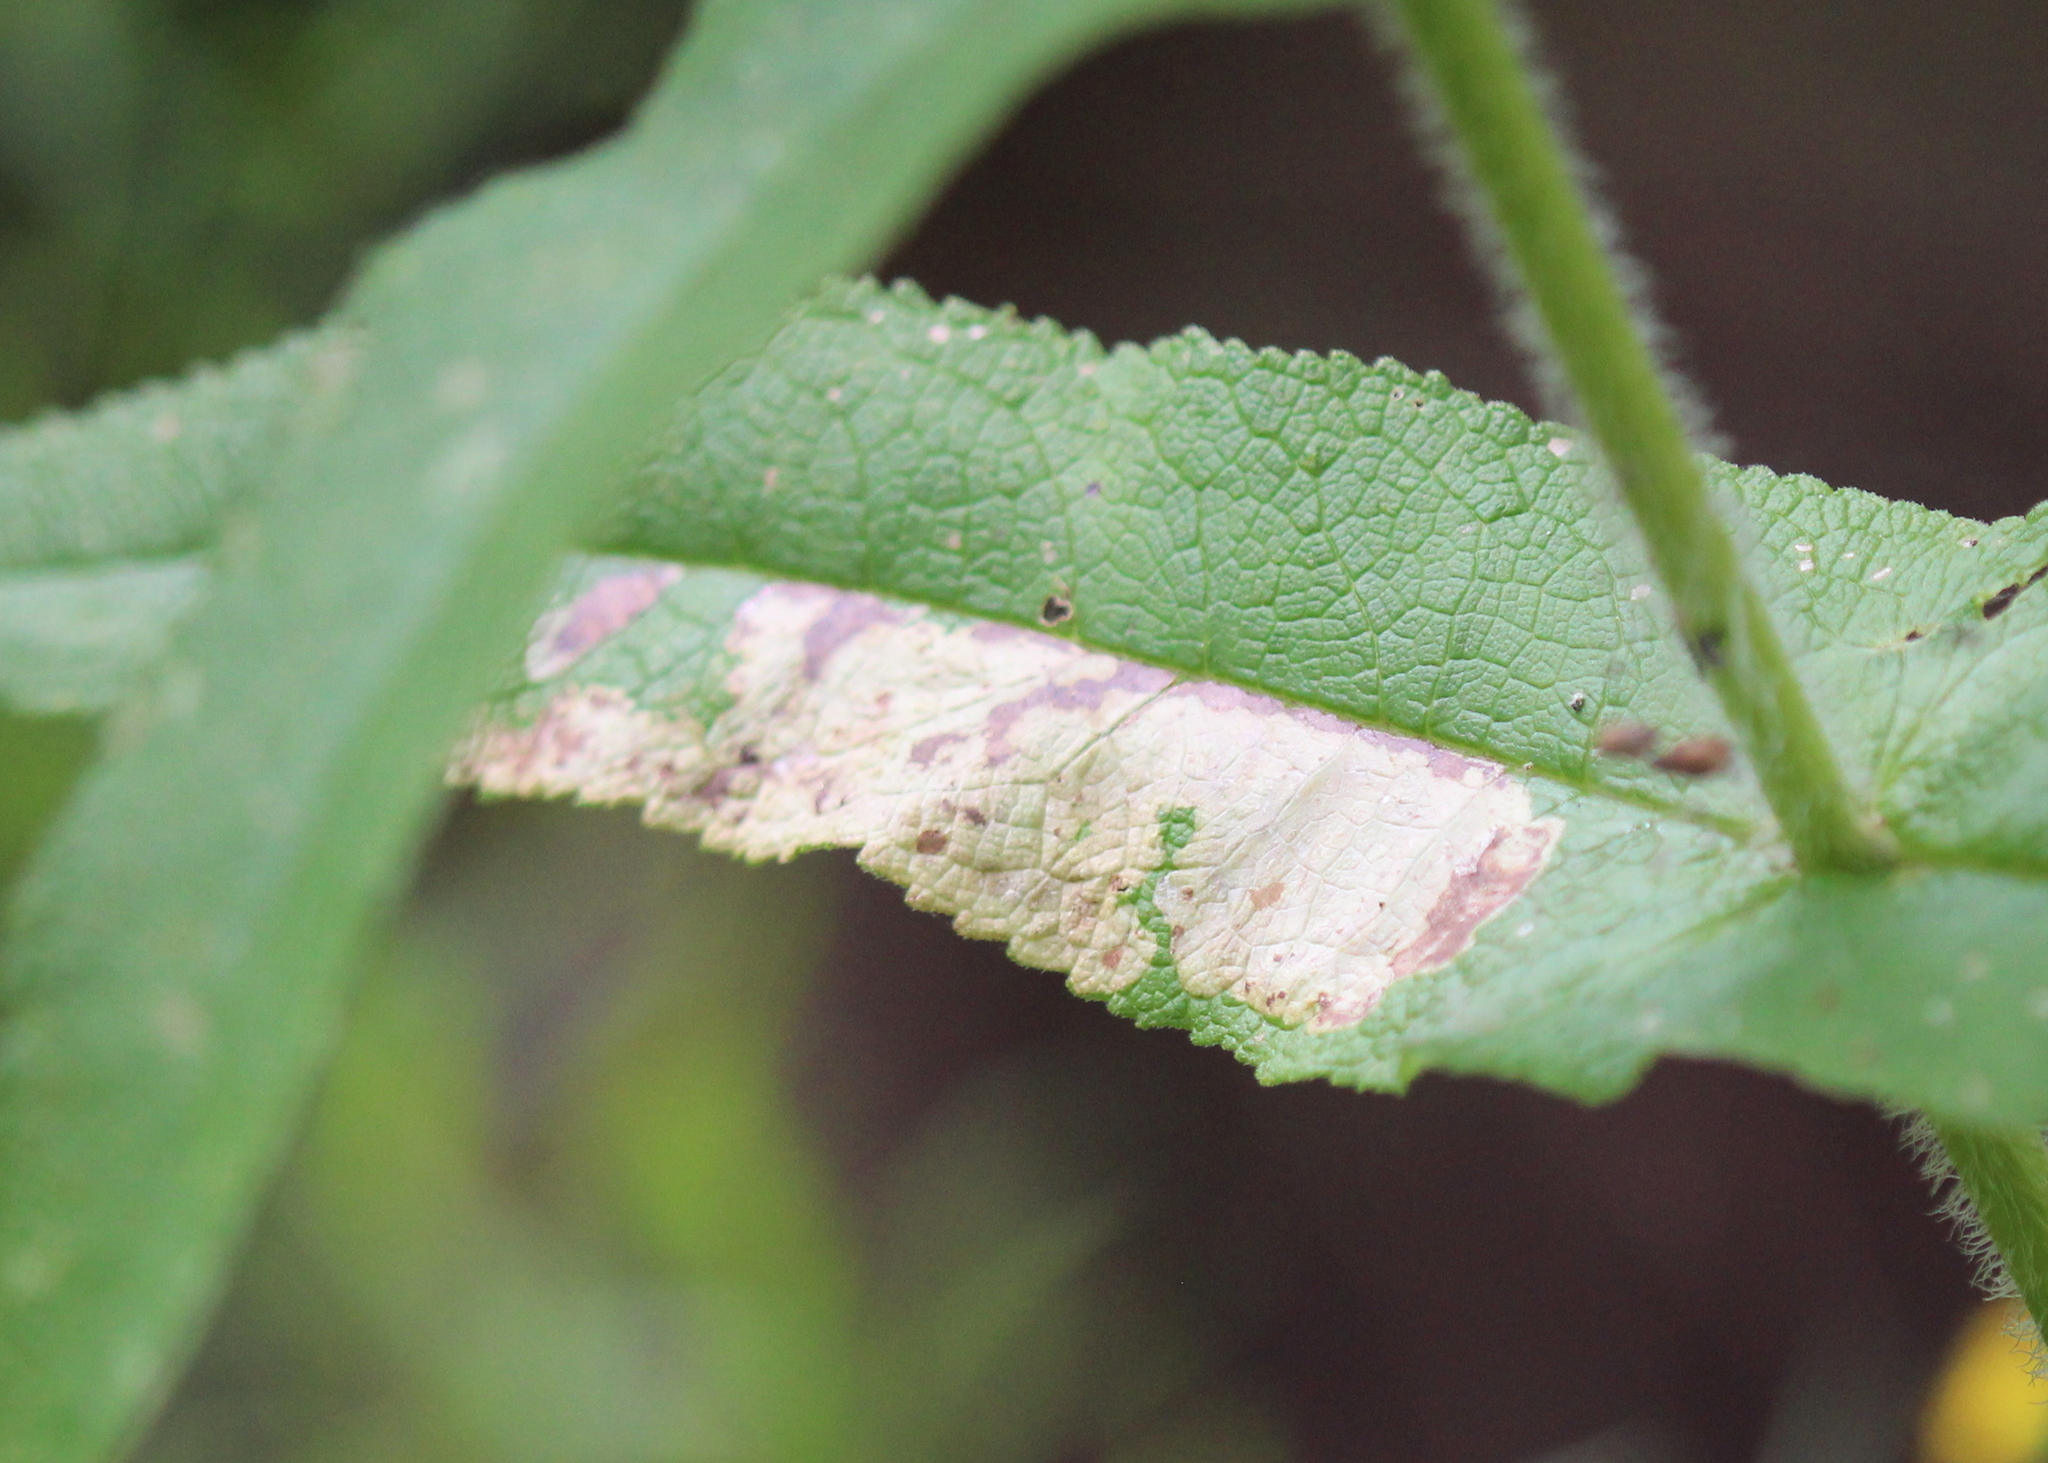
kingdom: Animalia
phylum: Arthropoda
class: Insecta
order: Diptera
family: Agromyzidae
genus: Calycomyza
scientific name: Calycomyza flavinotum
